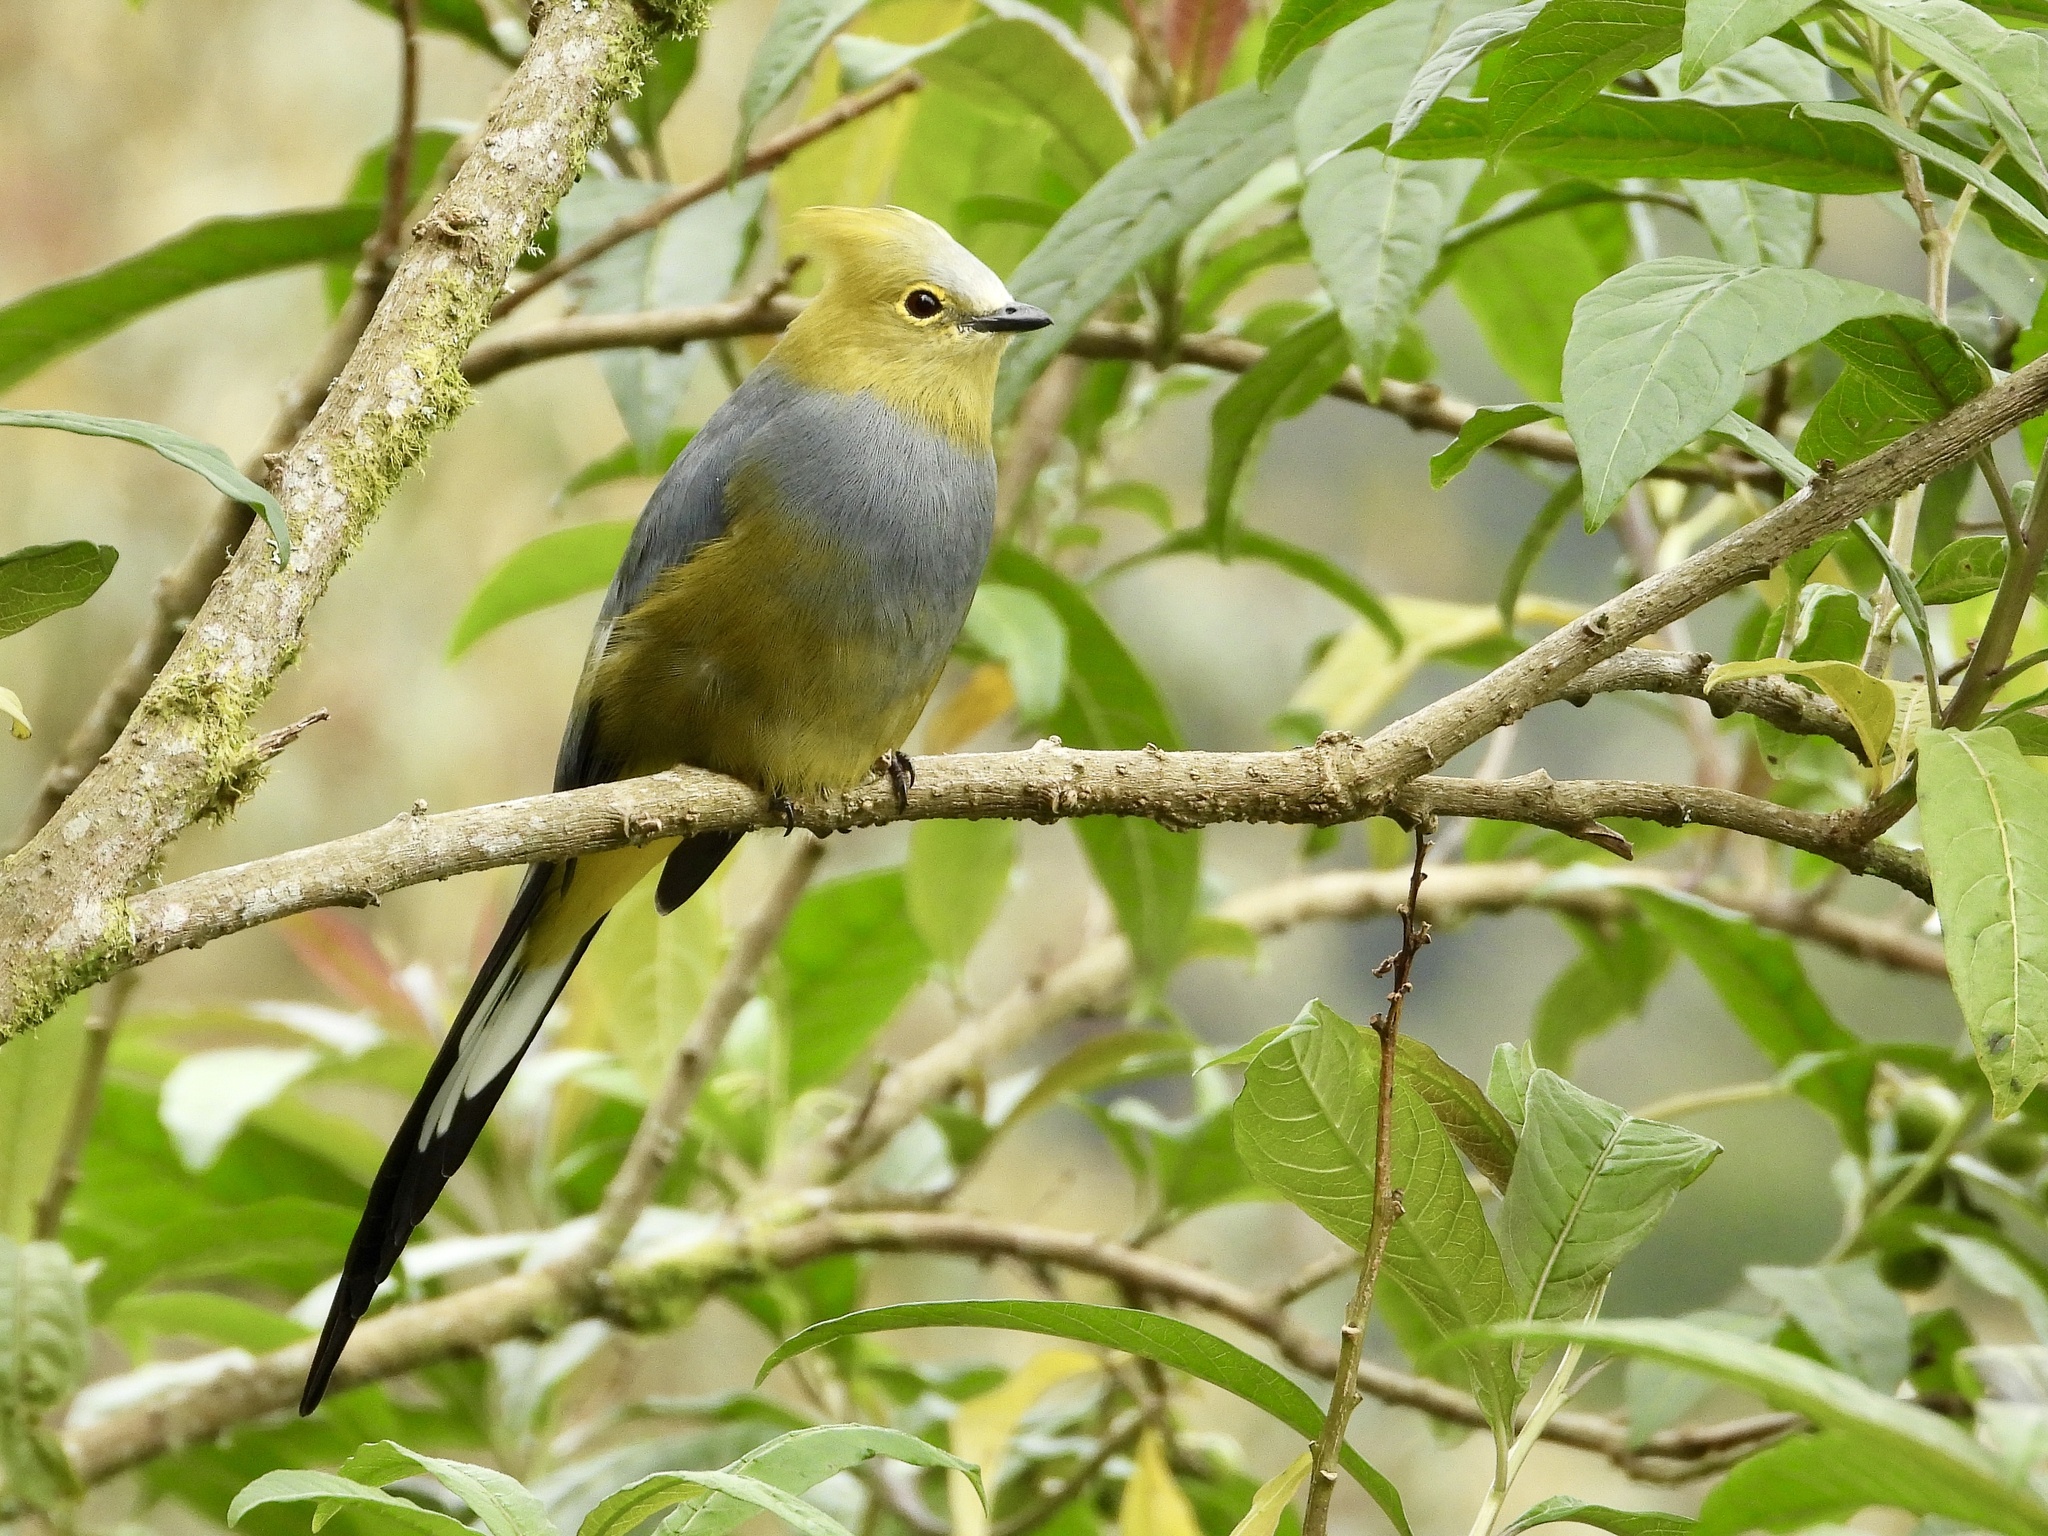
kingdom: Animalia
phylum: Chordata
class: Aves
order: Passeriformes
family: Ptilogonatidae
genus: Ptilogonys
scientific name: Ptilogonys caudatus
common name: Long-tailed silky-flycatcher
